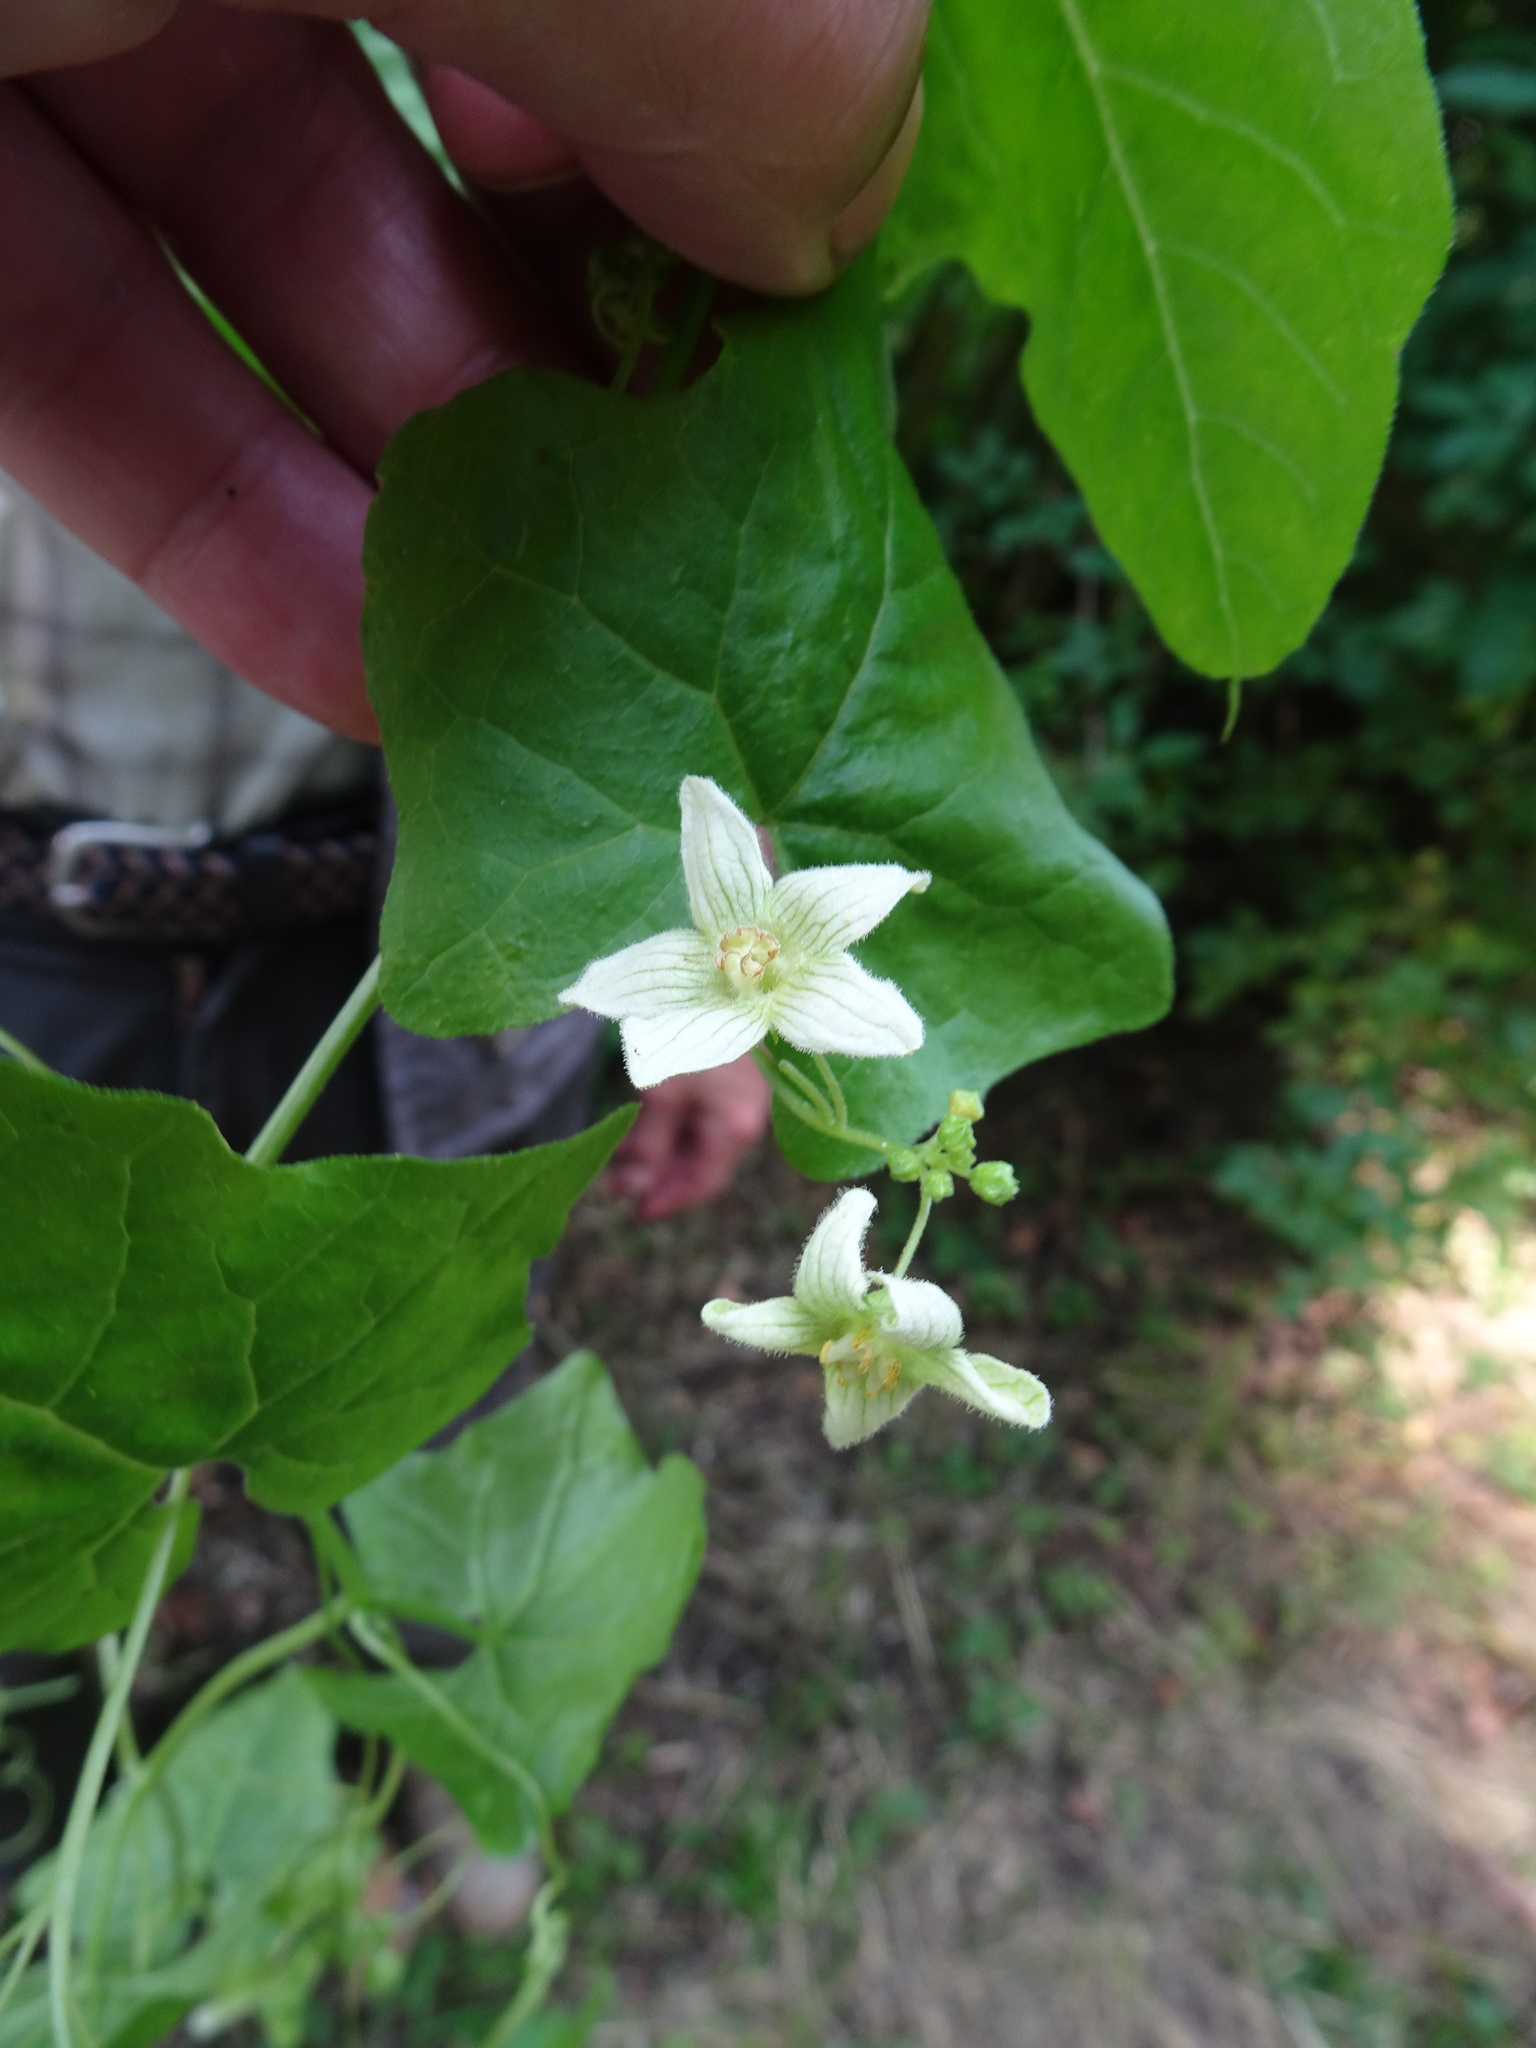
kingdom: Plantae
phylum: Tracheophyta
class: Magnoliopsida
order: Cucurbitales
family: Cucurbitaceae
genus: Bryonia
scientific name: Bryonia cretica
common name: Cretan bryony
